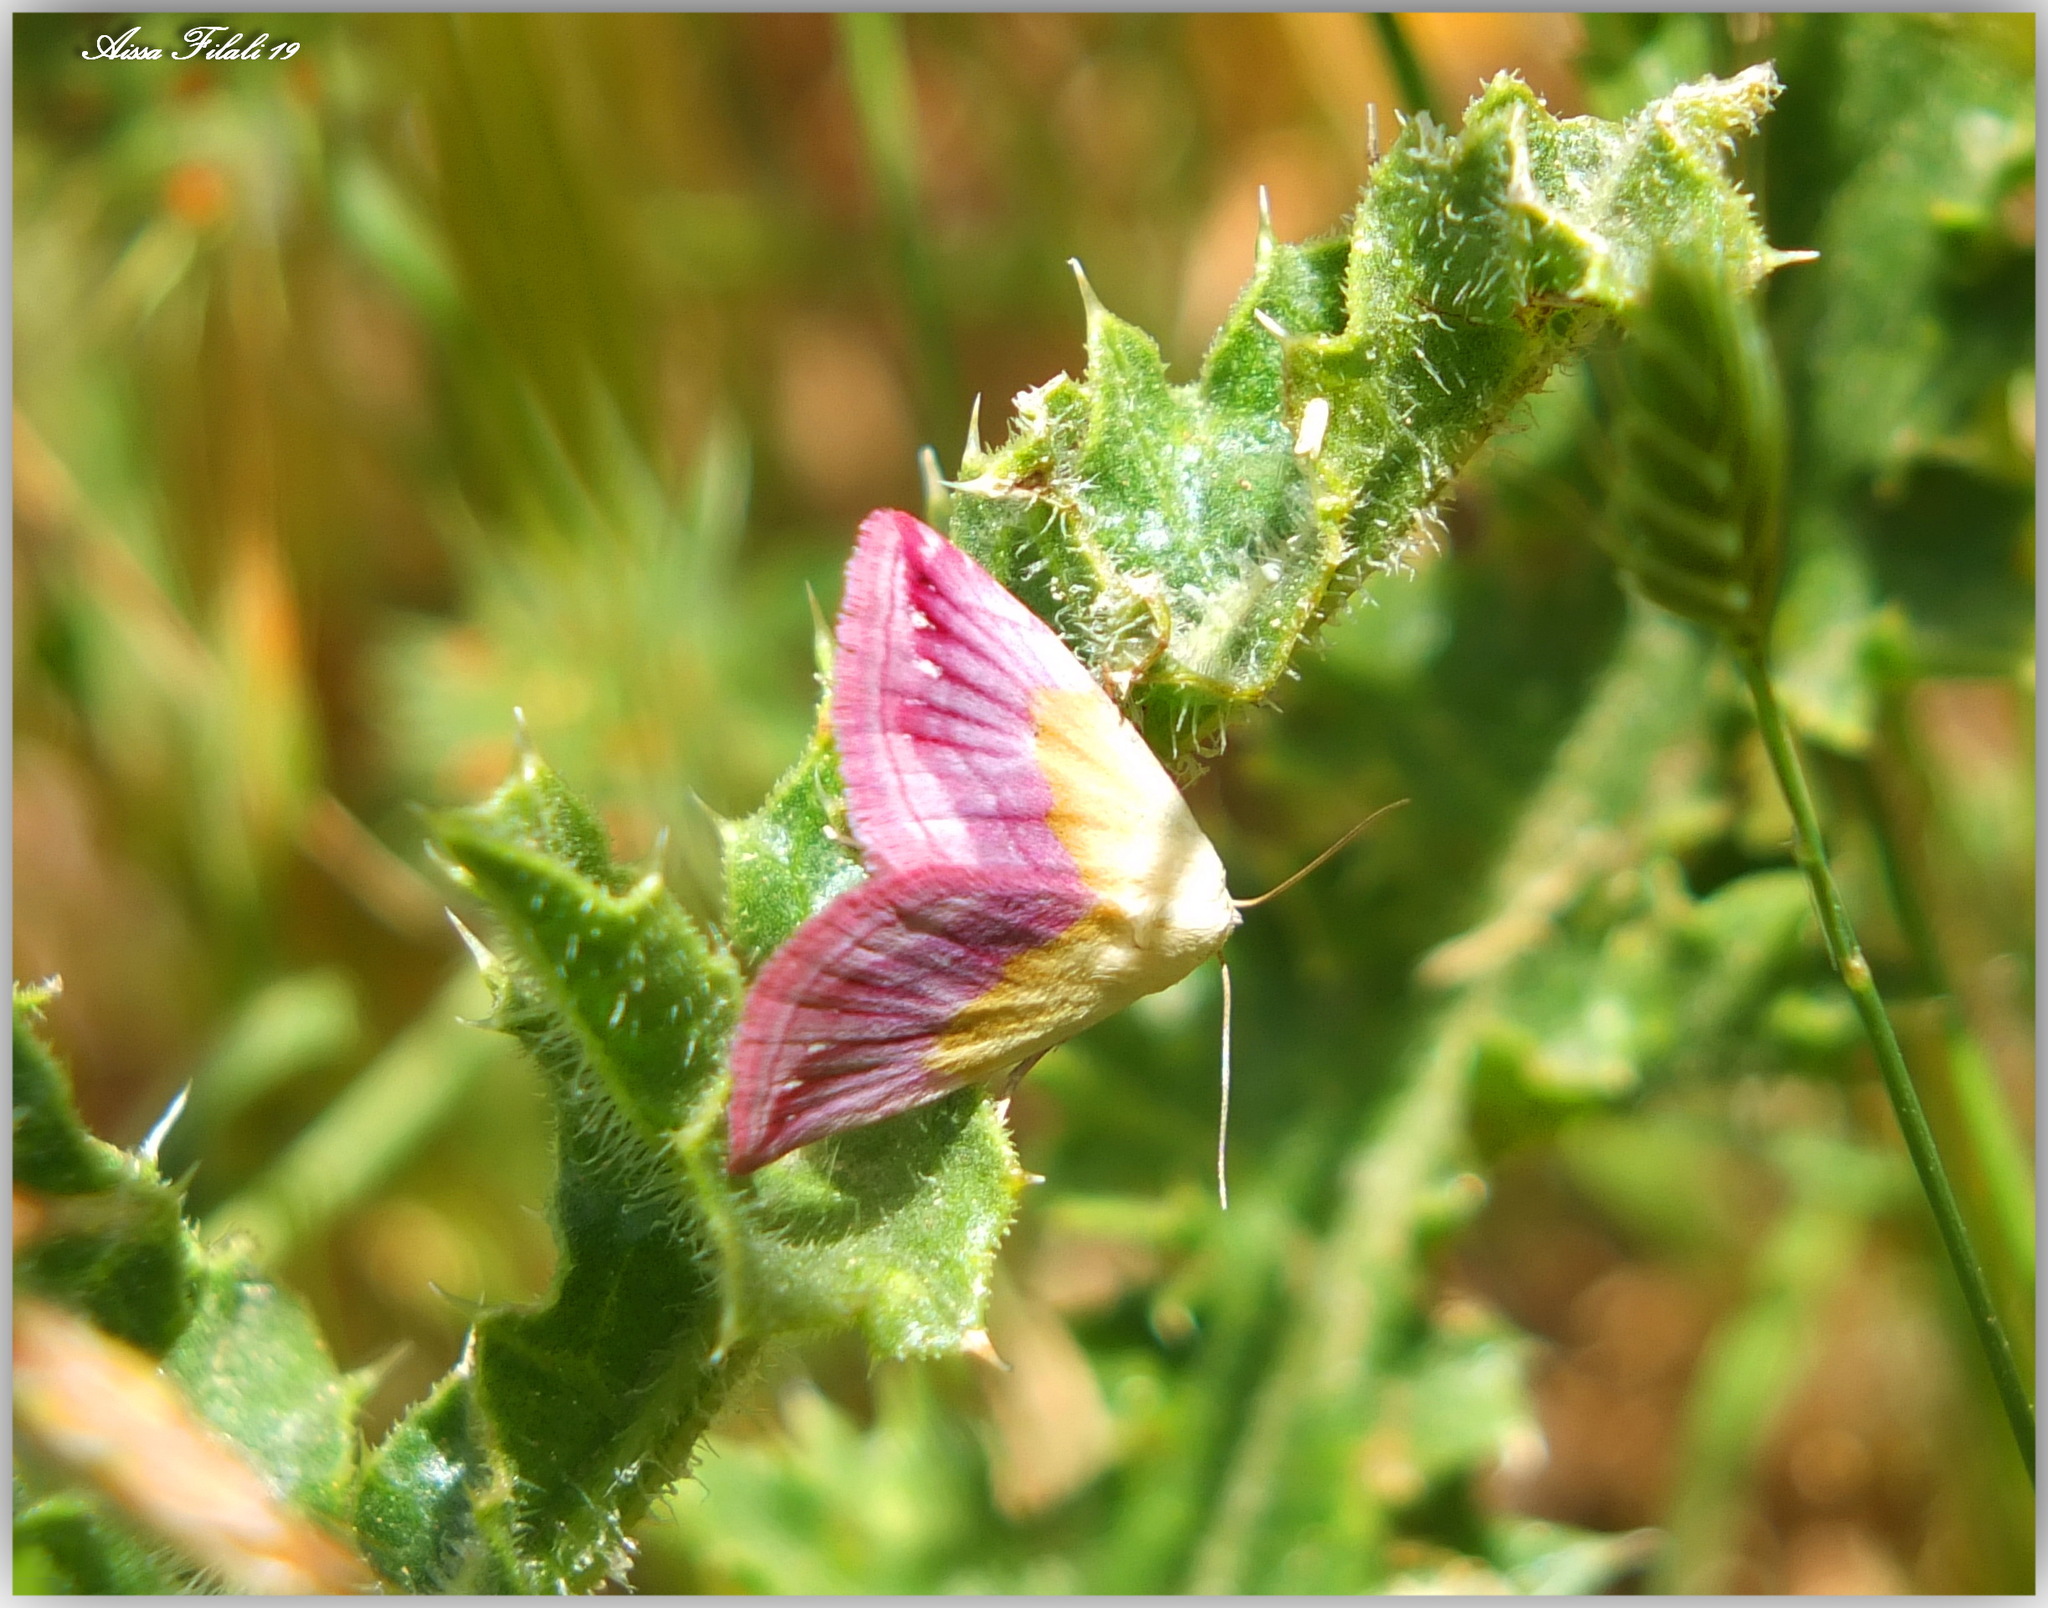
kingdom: Animalia
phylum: Arthropoda
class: Insecta
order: Lepidoptera
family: Noctuidae
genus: Eublemma
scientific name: Eublemma purpurina
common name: Beautiful marbled
